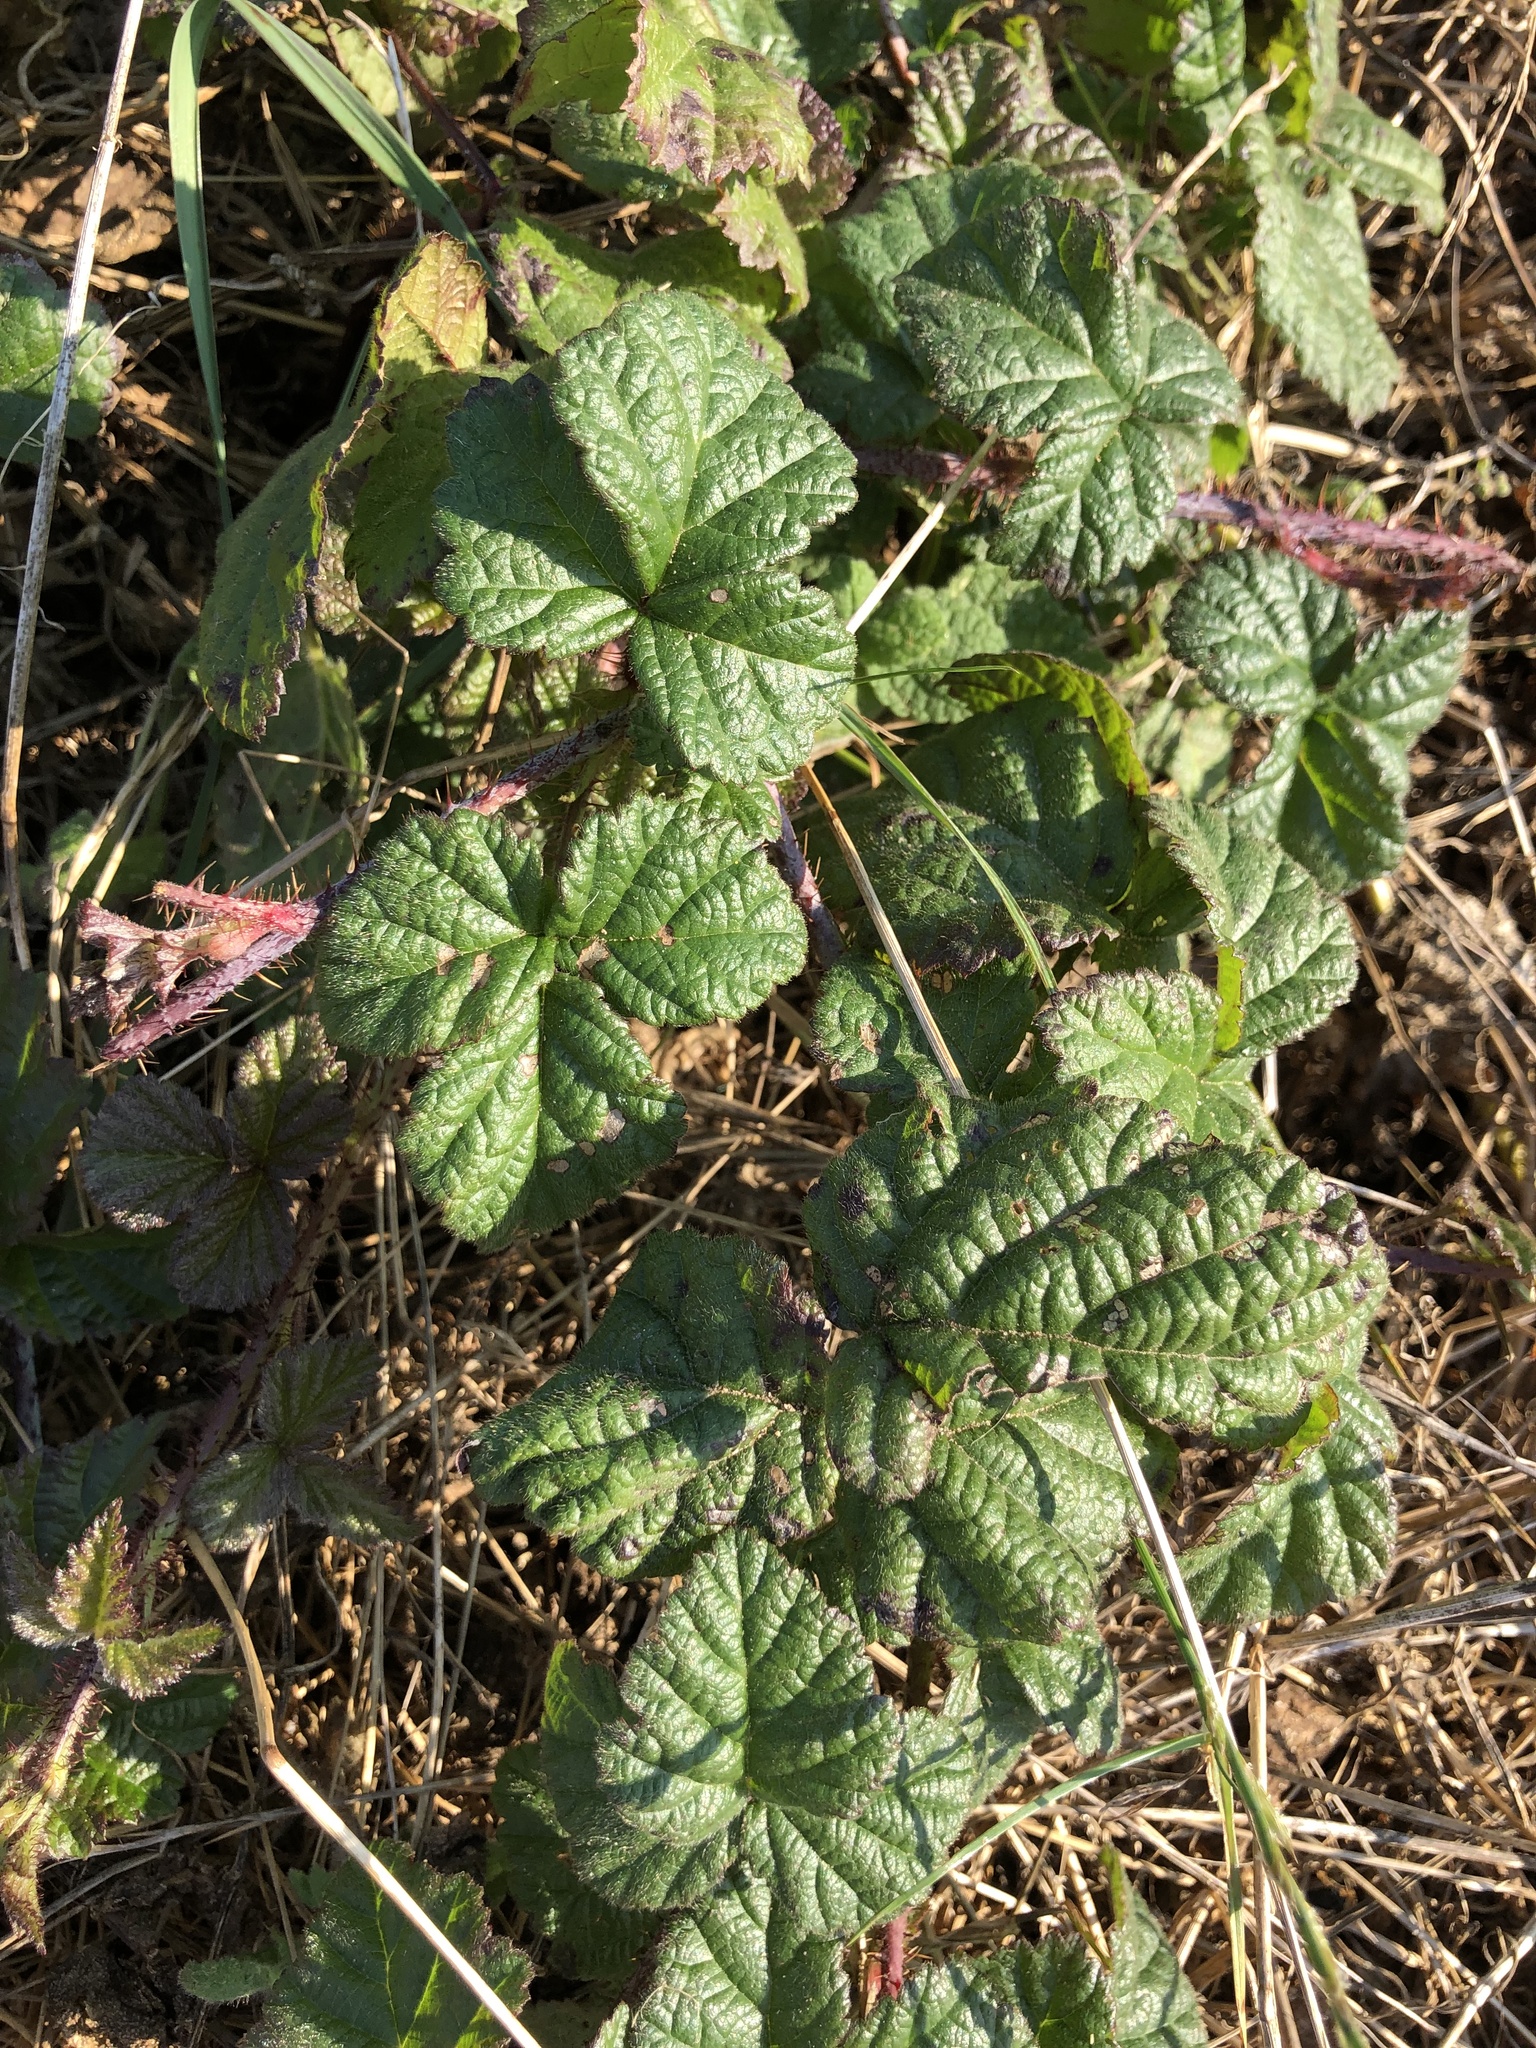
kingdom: Plantae
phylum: Tracheophyta
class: Magnoliopsida
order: Rosales
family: Rosaceae
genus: Rubus
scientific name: Rubus ursinus
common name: Pacific blackberry
